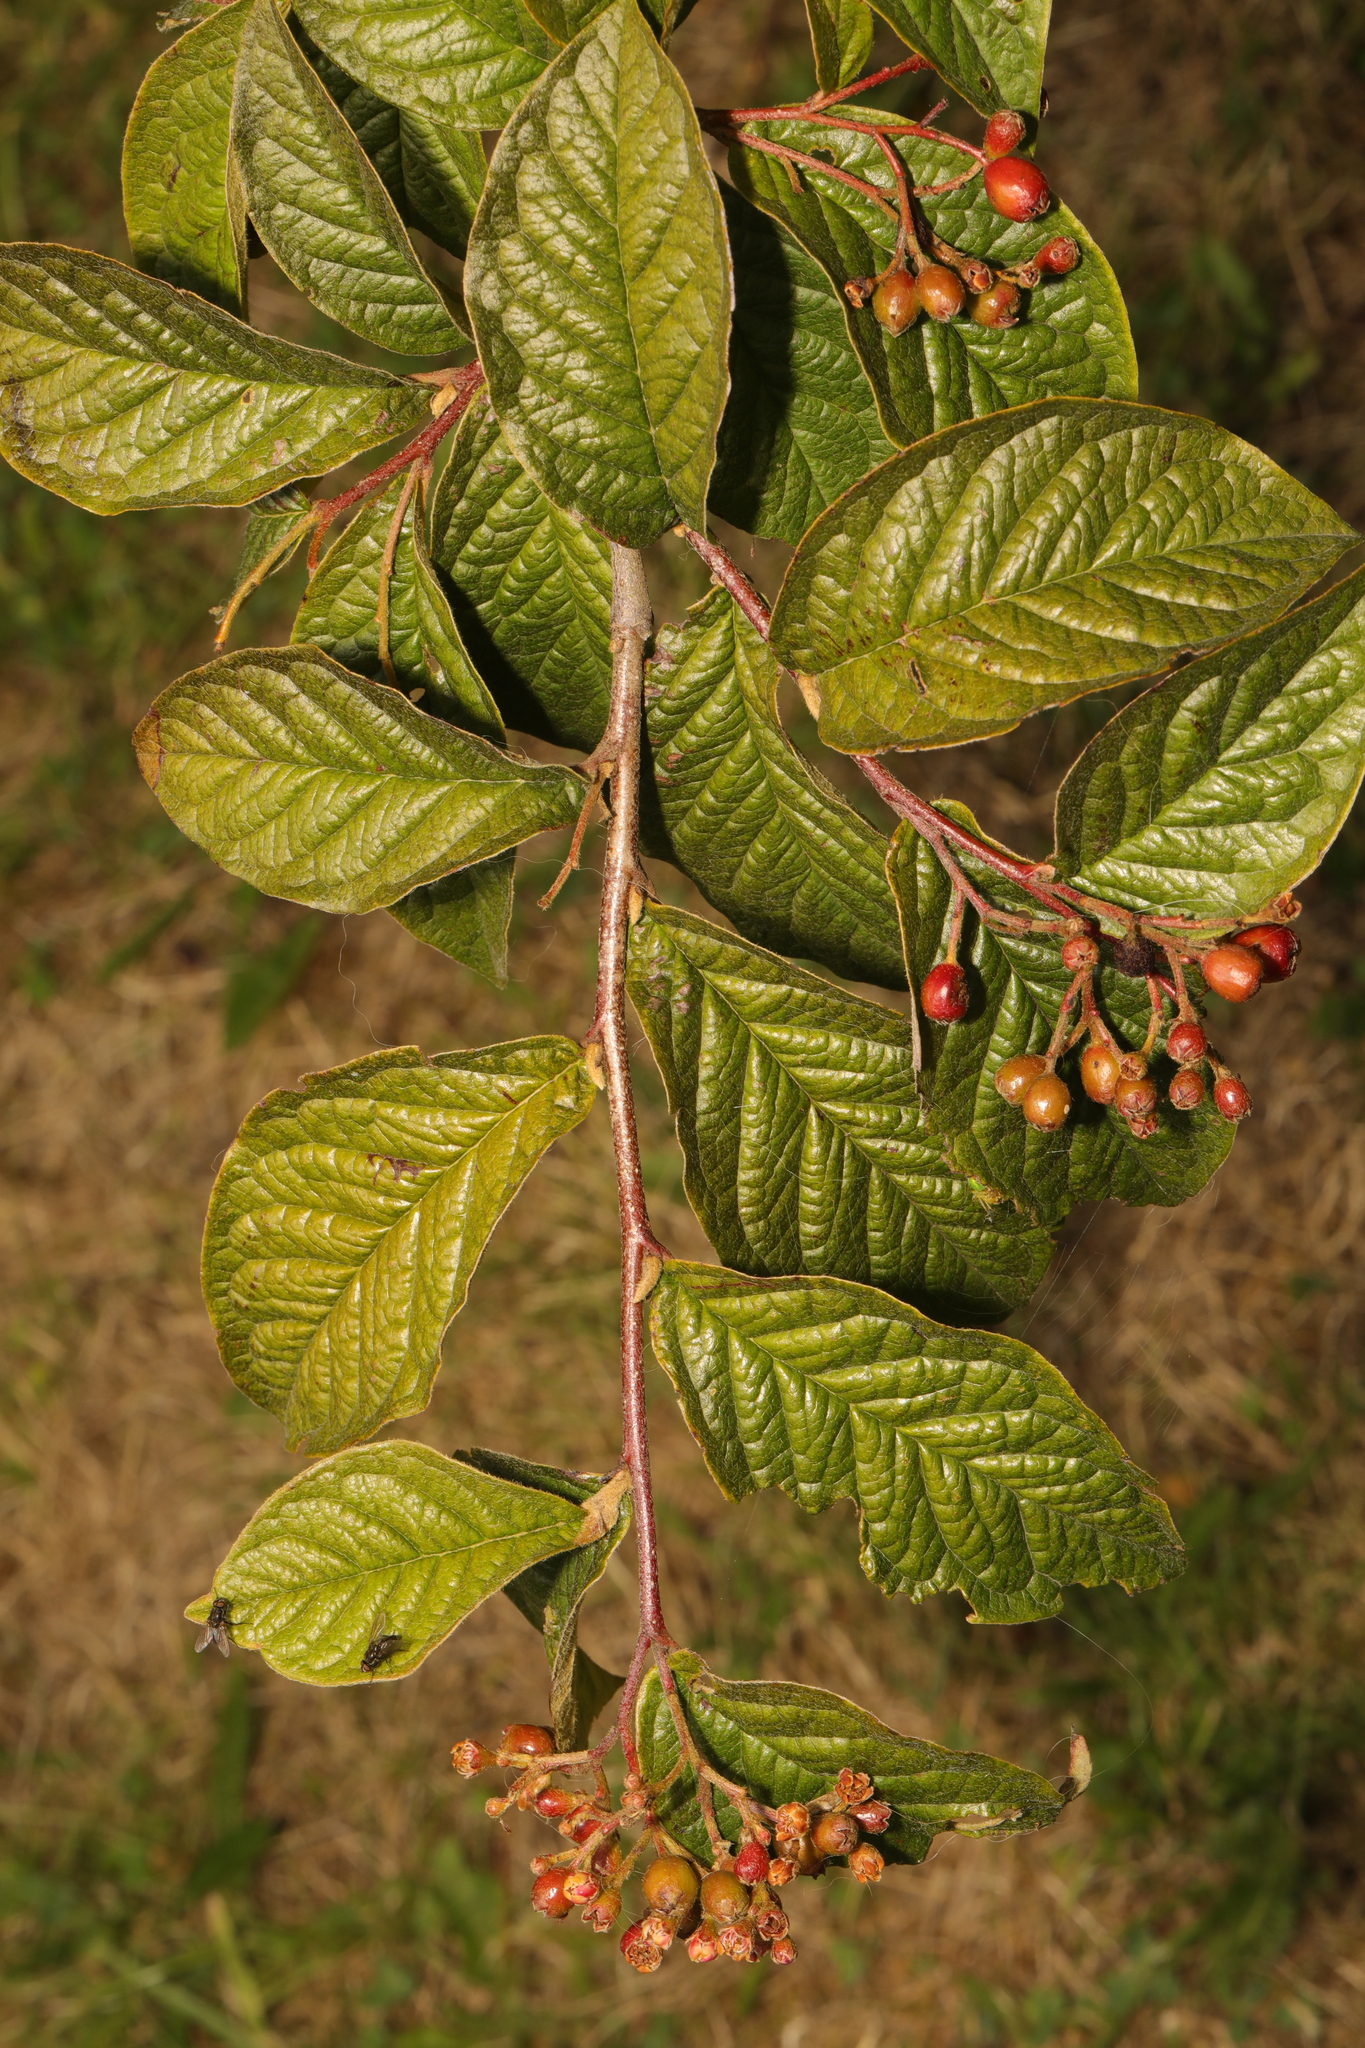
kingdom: Plantae
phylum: Tracheophyta
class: Magnoliopsida
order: Rosales
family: Rosaceae
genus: Cotoneaster
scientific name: Cotoneaster bullatus
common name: Hollyberry cotoneaster
